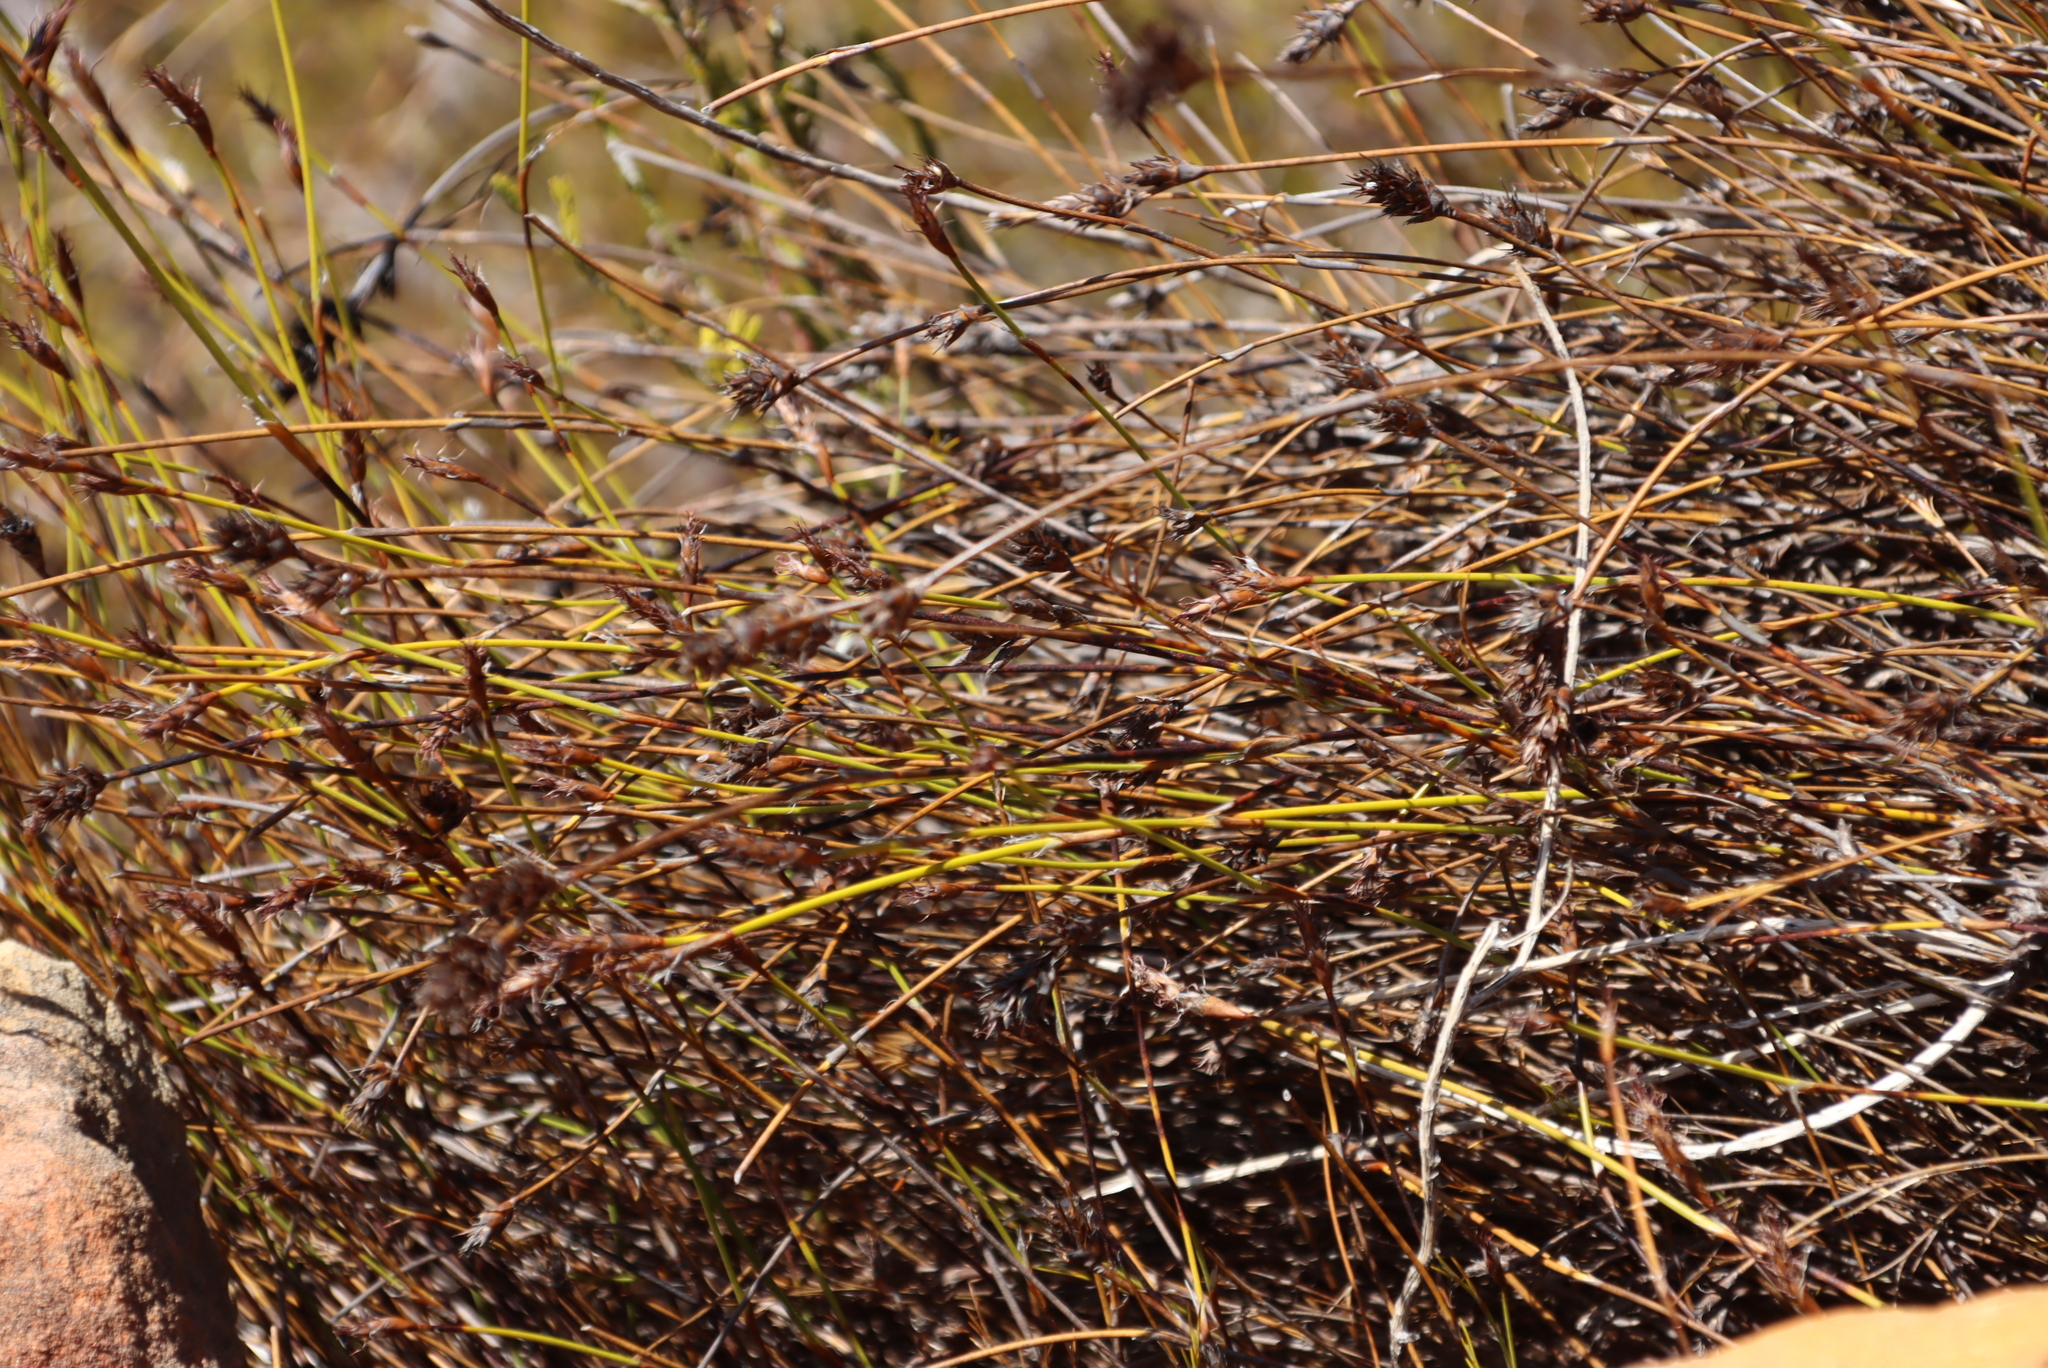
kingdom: Plantae
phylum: Tracheophyta
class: Liliopsida
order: Poales
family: Restionaceae
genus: Restio
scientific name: Restio capensis
